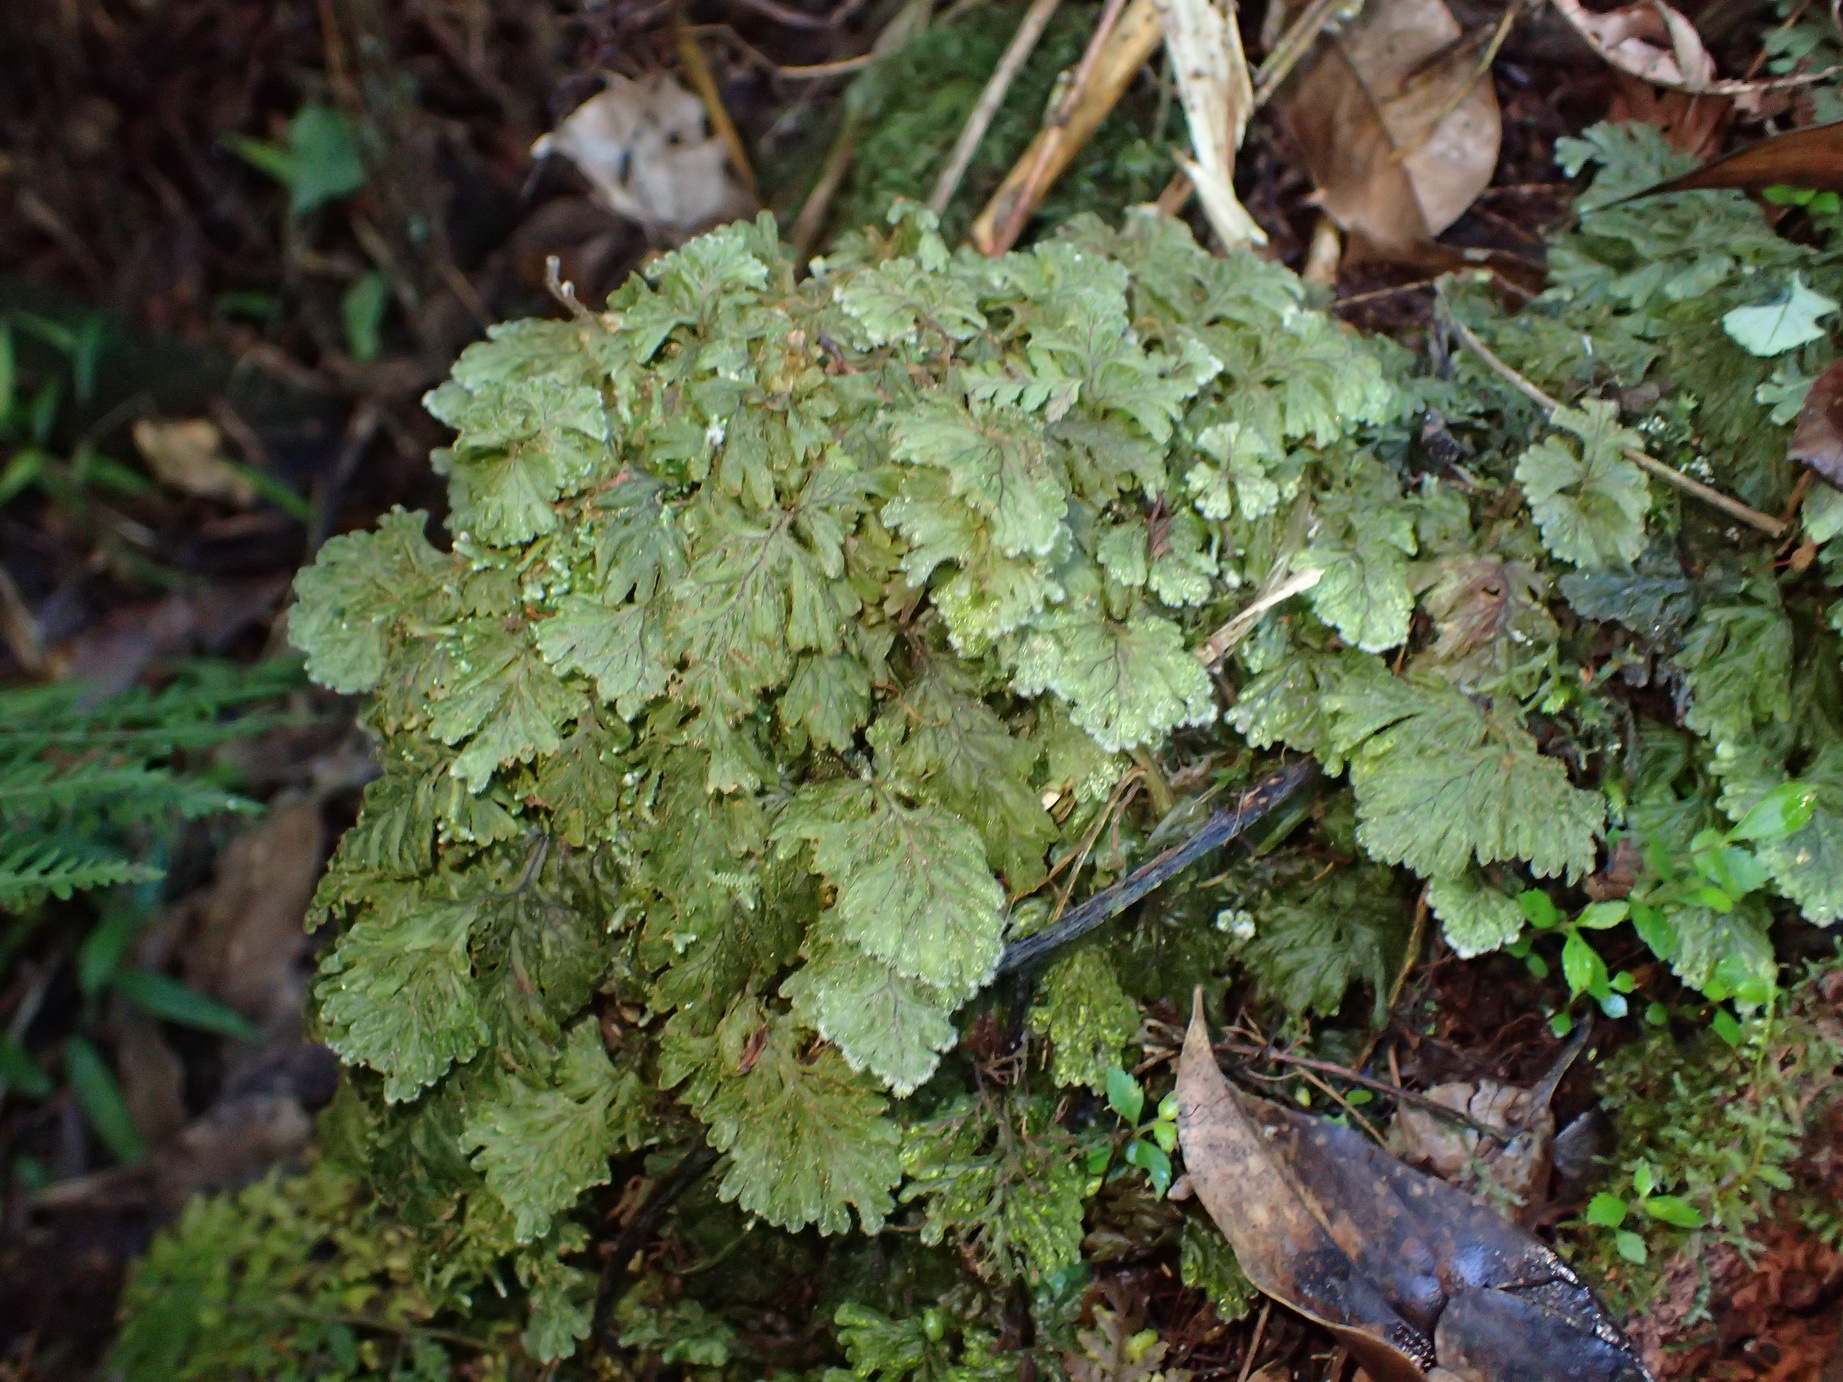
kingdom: Plantae
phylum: Tracheophyta
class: Polypodiopsida
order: Hymenophyllales
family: Hymenophyllaceae
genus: Hymenophyllum
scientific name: Hymenophyllum aeruginosum
